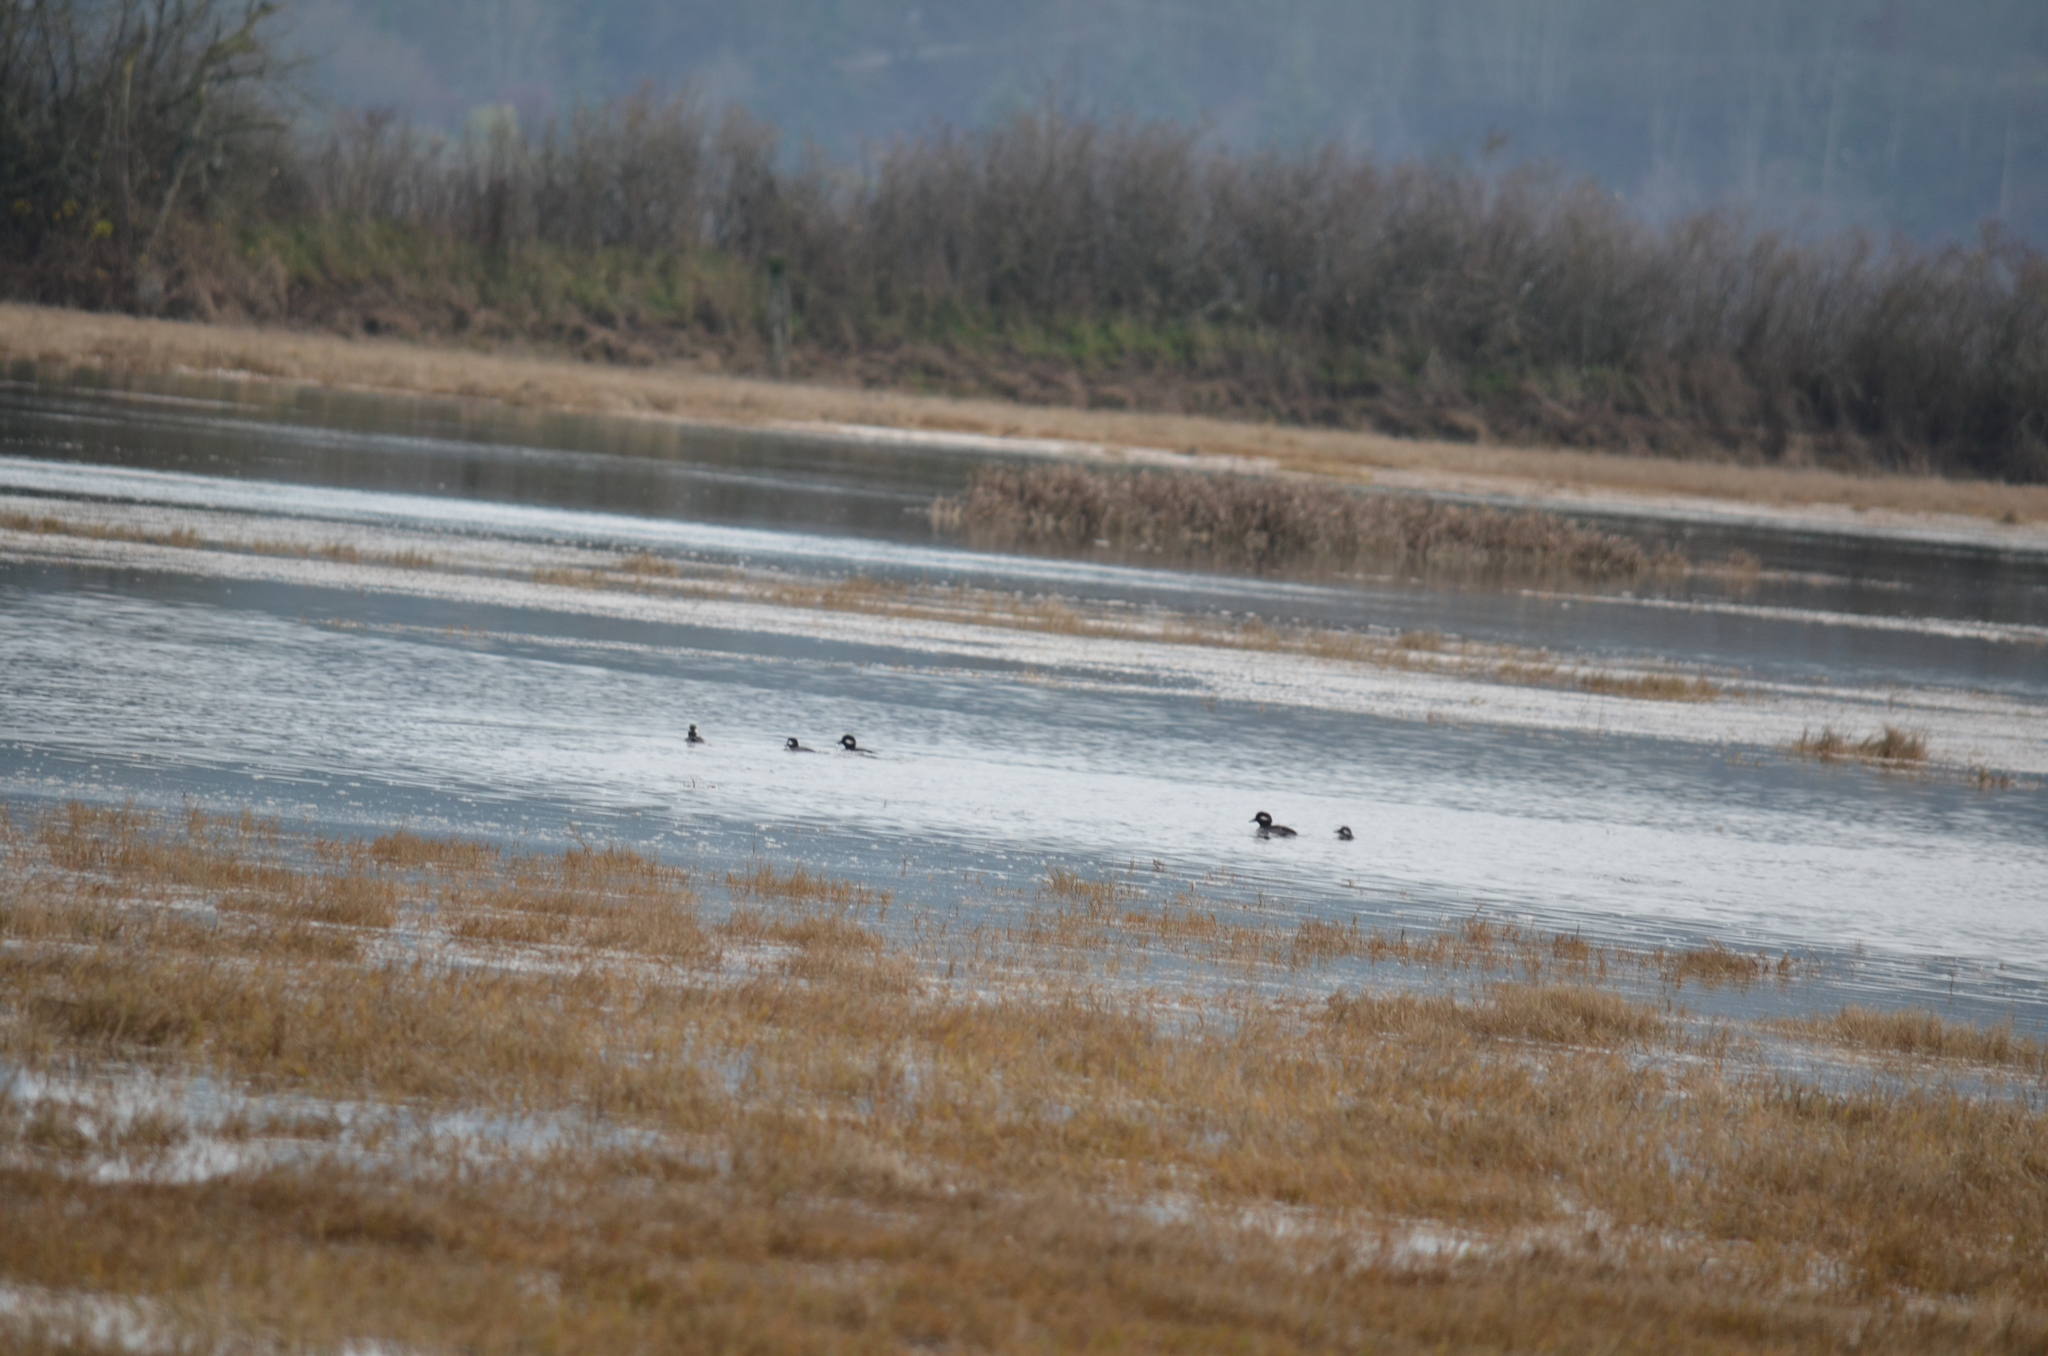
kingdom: Animalia
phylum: Chordata
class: Aves
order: Anseriformes
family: Anatidae
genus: Bucephala
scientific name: Bucephala albeola
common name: Bufflehead
